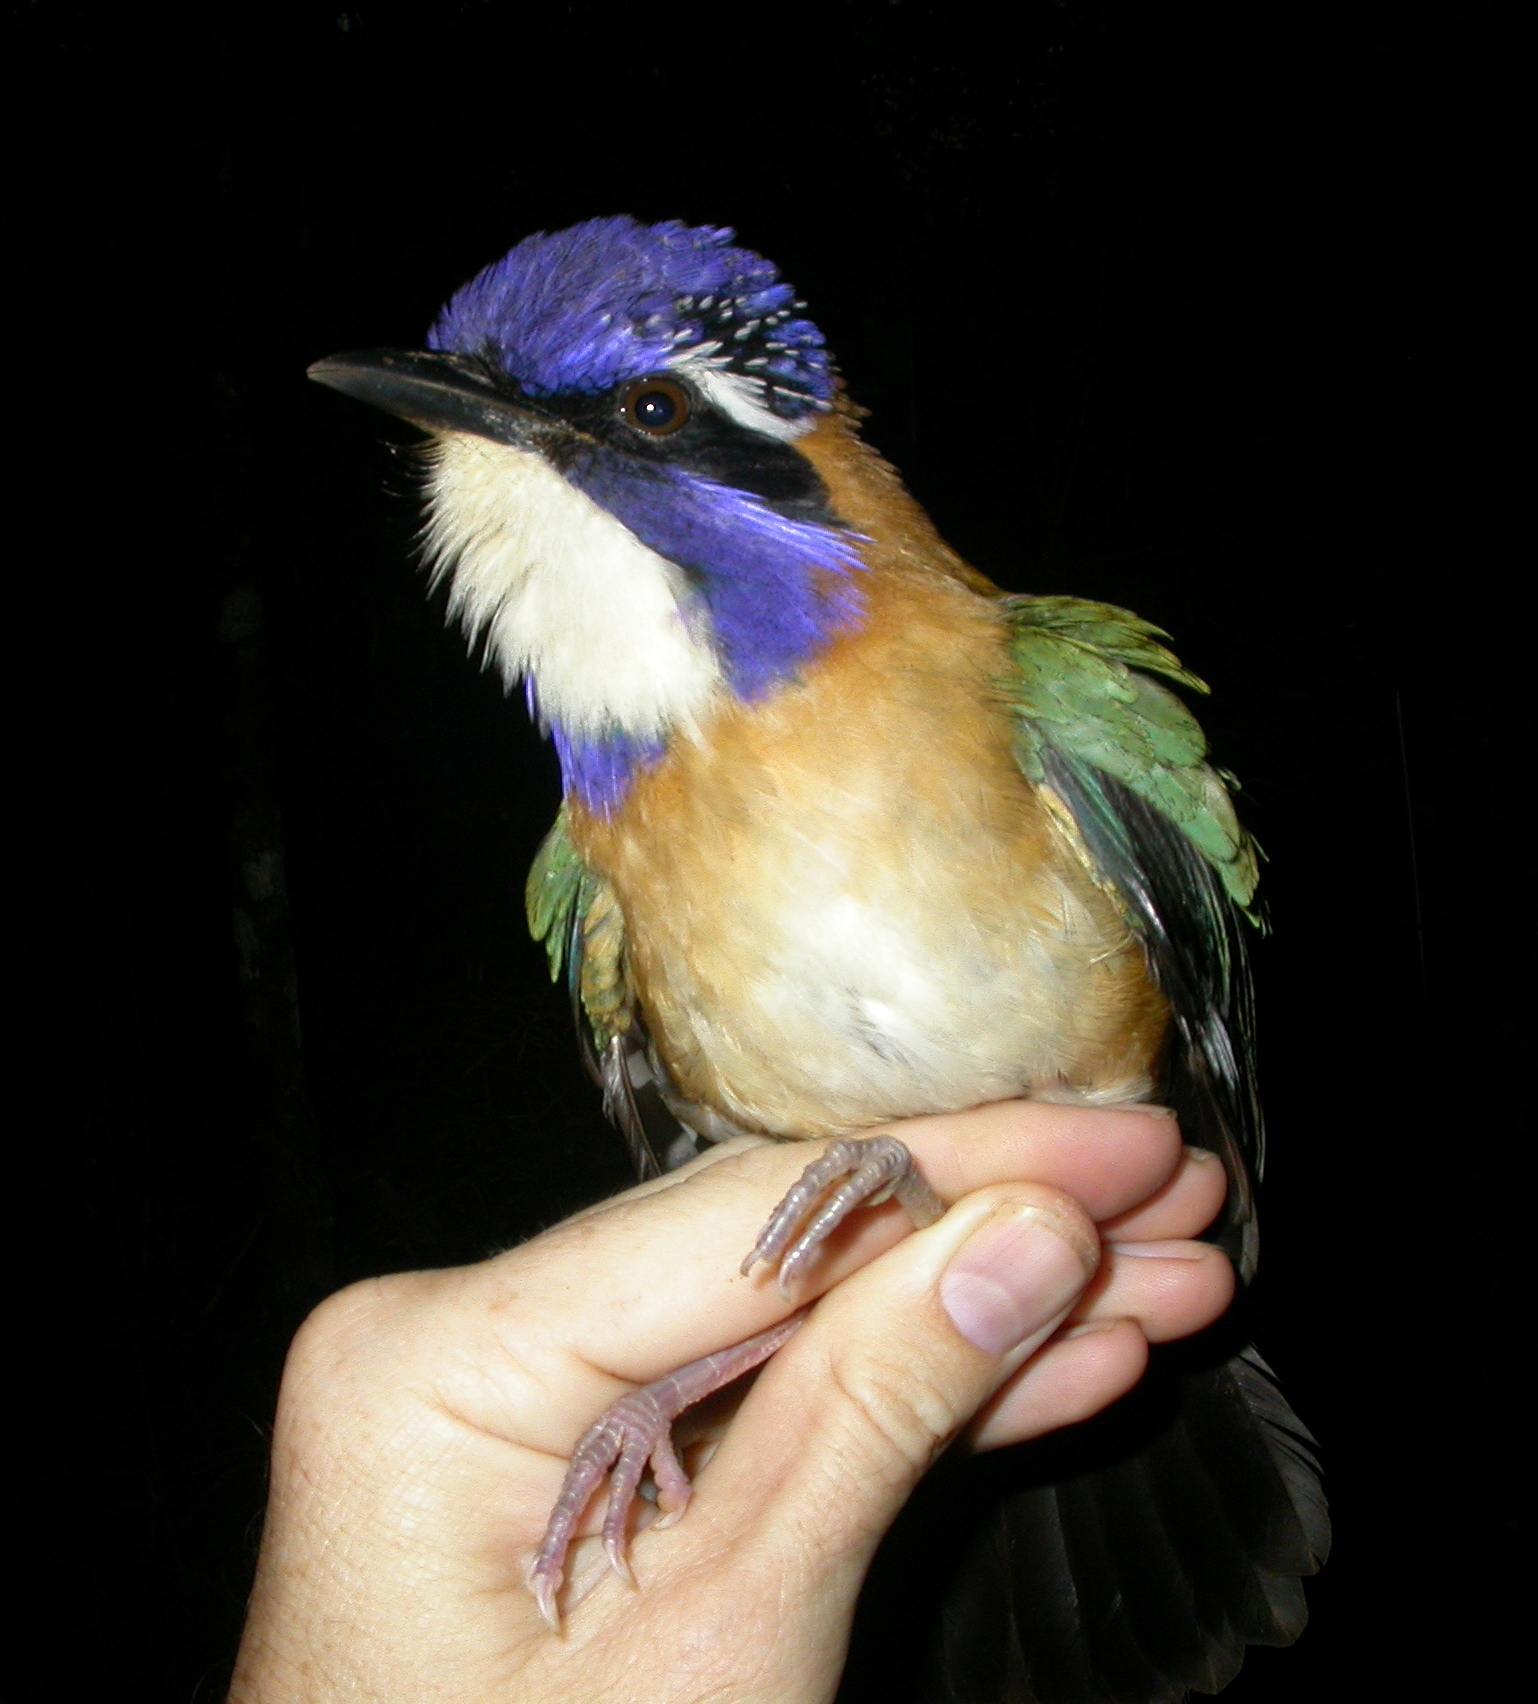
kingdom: Animalia
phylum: Chordata
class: Aves
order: Coraciiformes
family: Brachypteraciidae
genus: Atelornis
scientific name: Atelornis pittoides
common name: Pitta-like ground-roller
